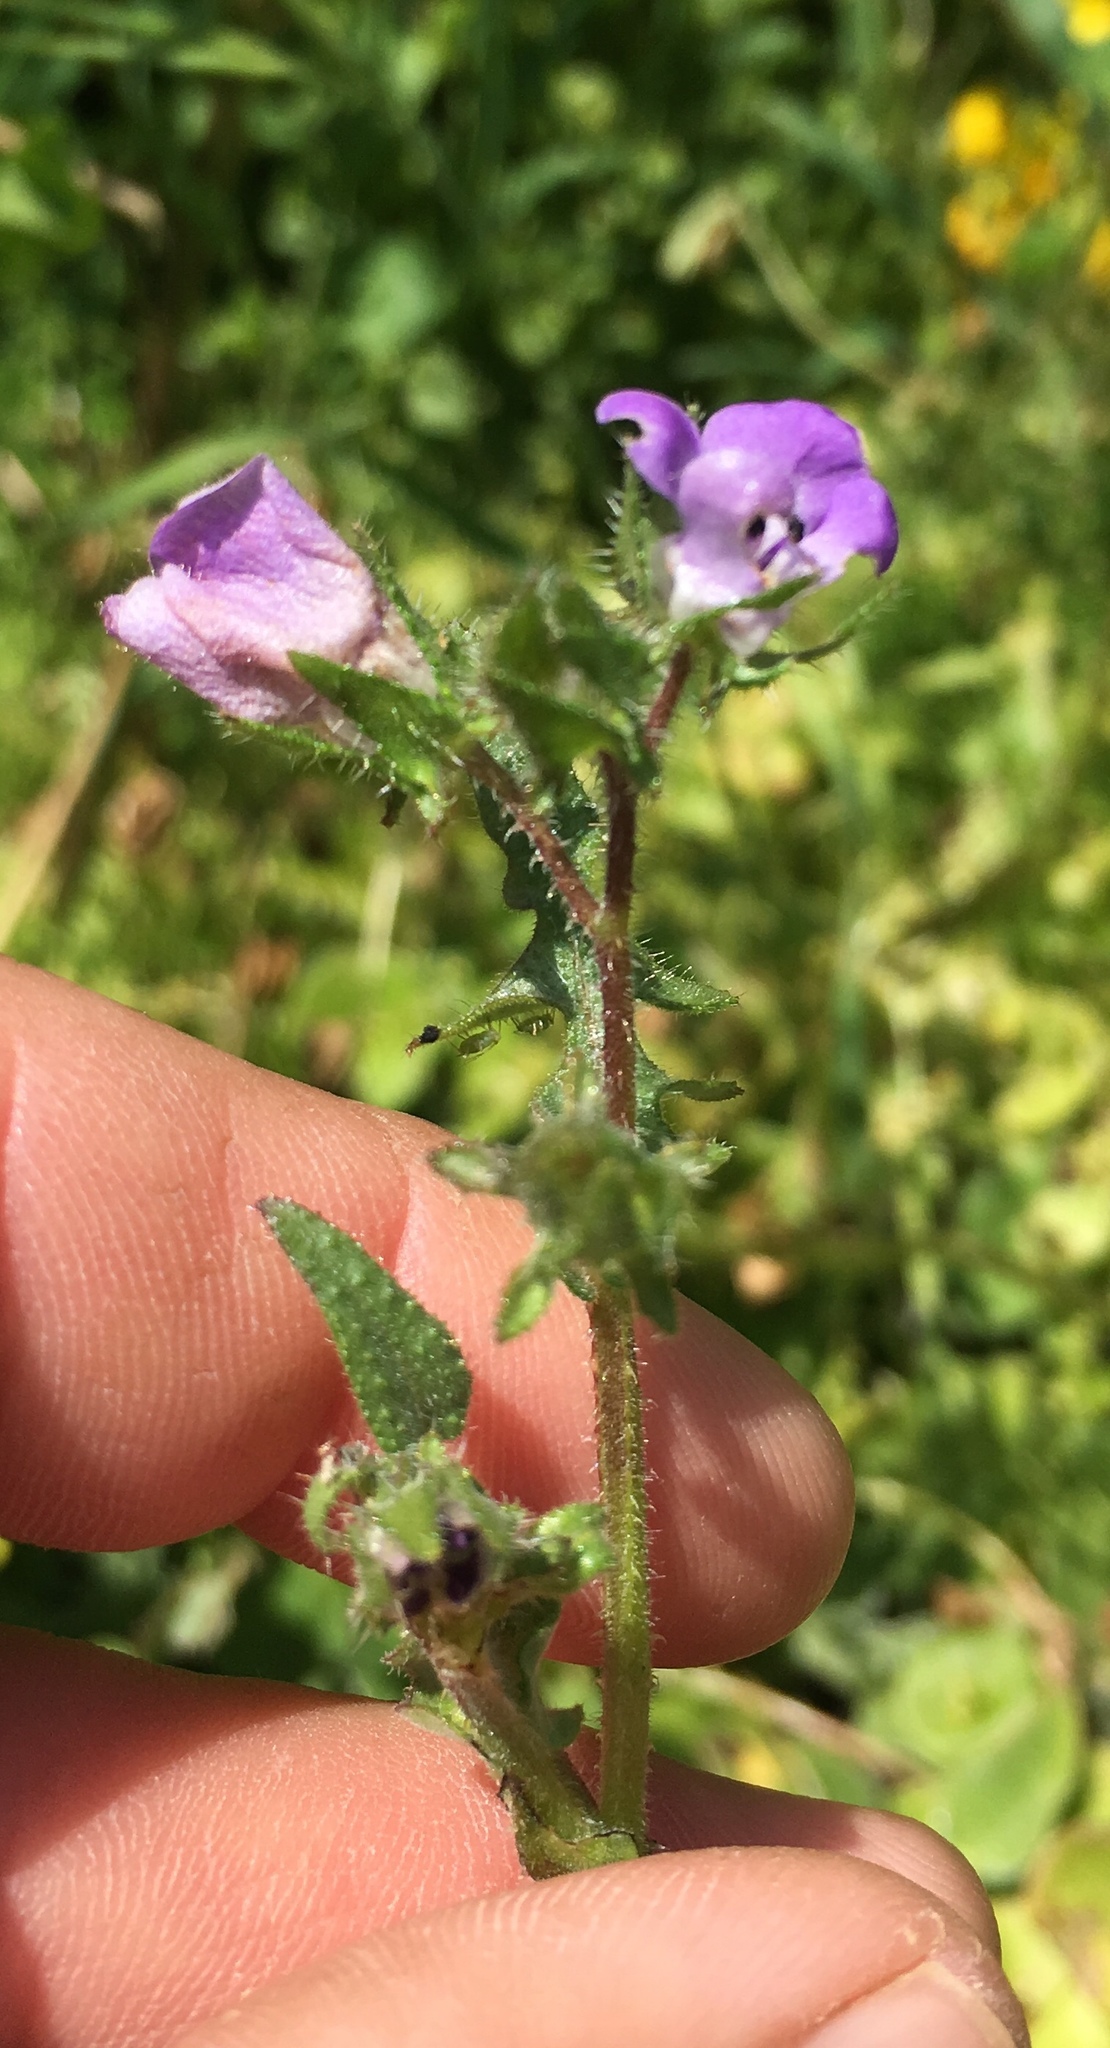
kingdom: Plantae
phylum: Tracheophyta
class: Magnoliopsida
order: Boraginales
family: Hydrophyllaceae
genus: Pholistoma
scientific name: Pholistoma auritum
